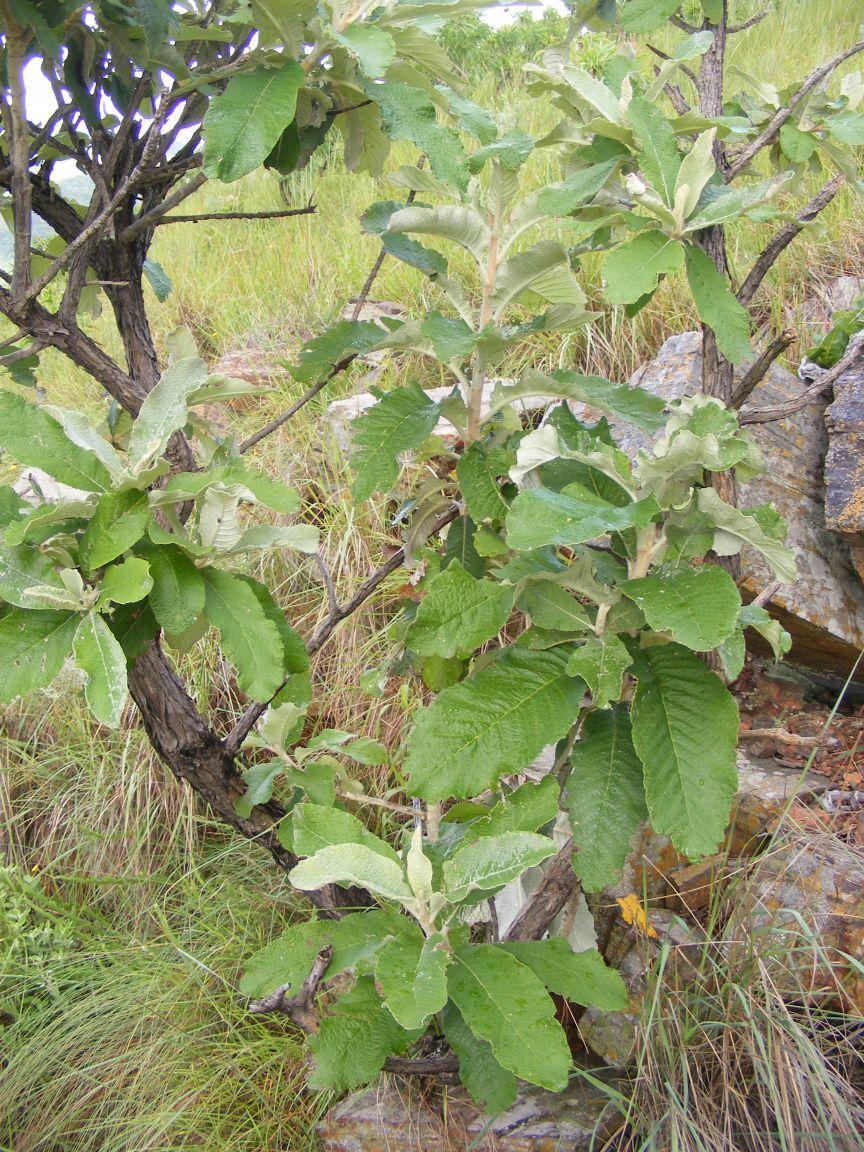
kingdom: Plantae
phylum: Tracheophyta
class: Magnoliopsida
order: Asterales
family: Asteraceae
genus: Tarchonanthus
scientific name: Tarchonanthus trilobus
